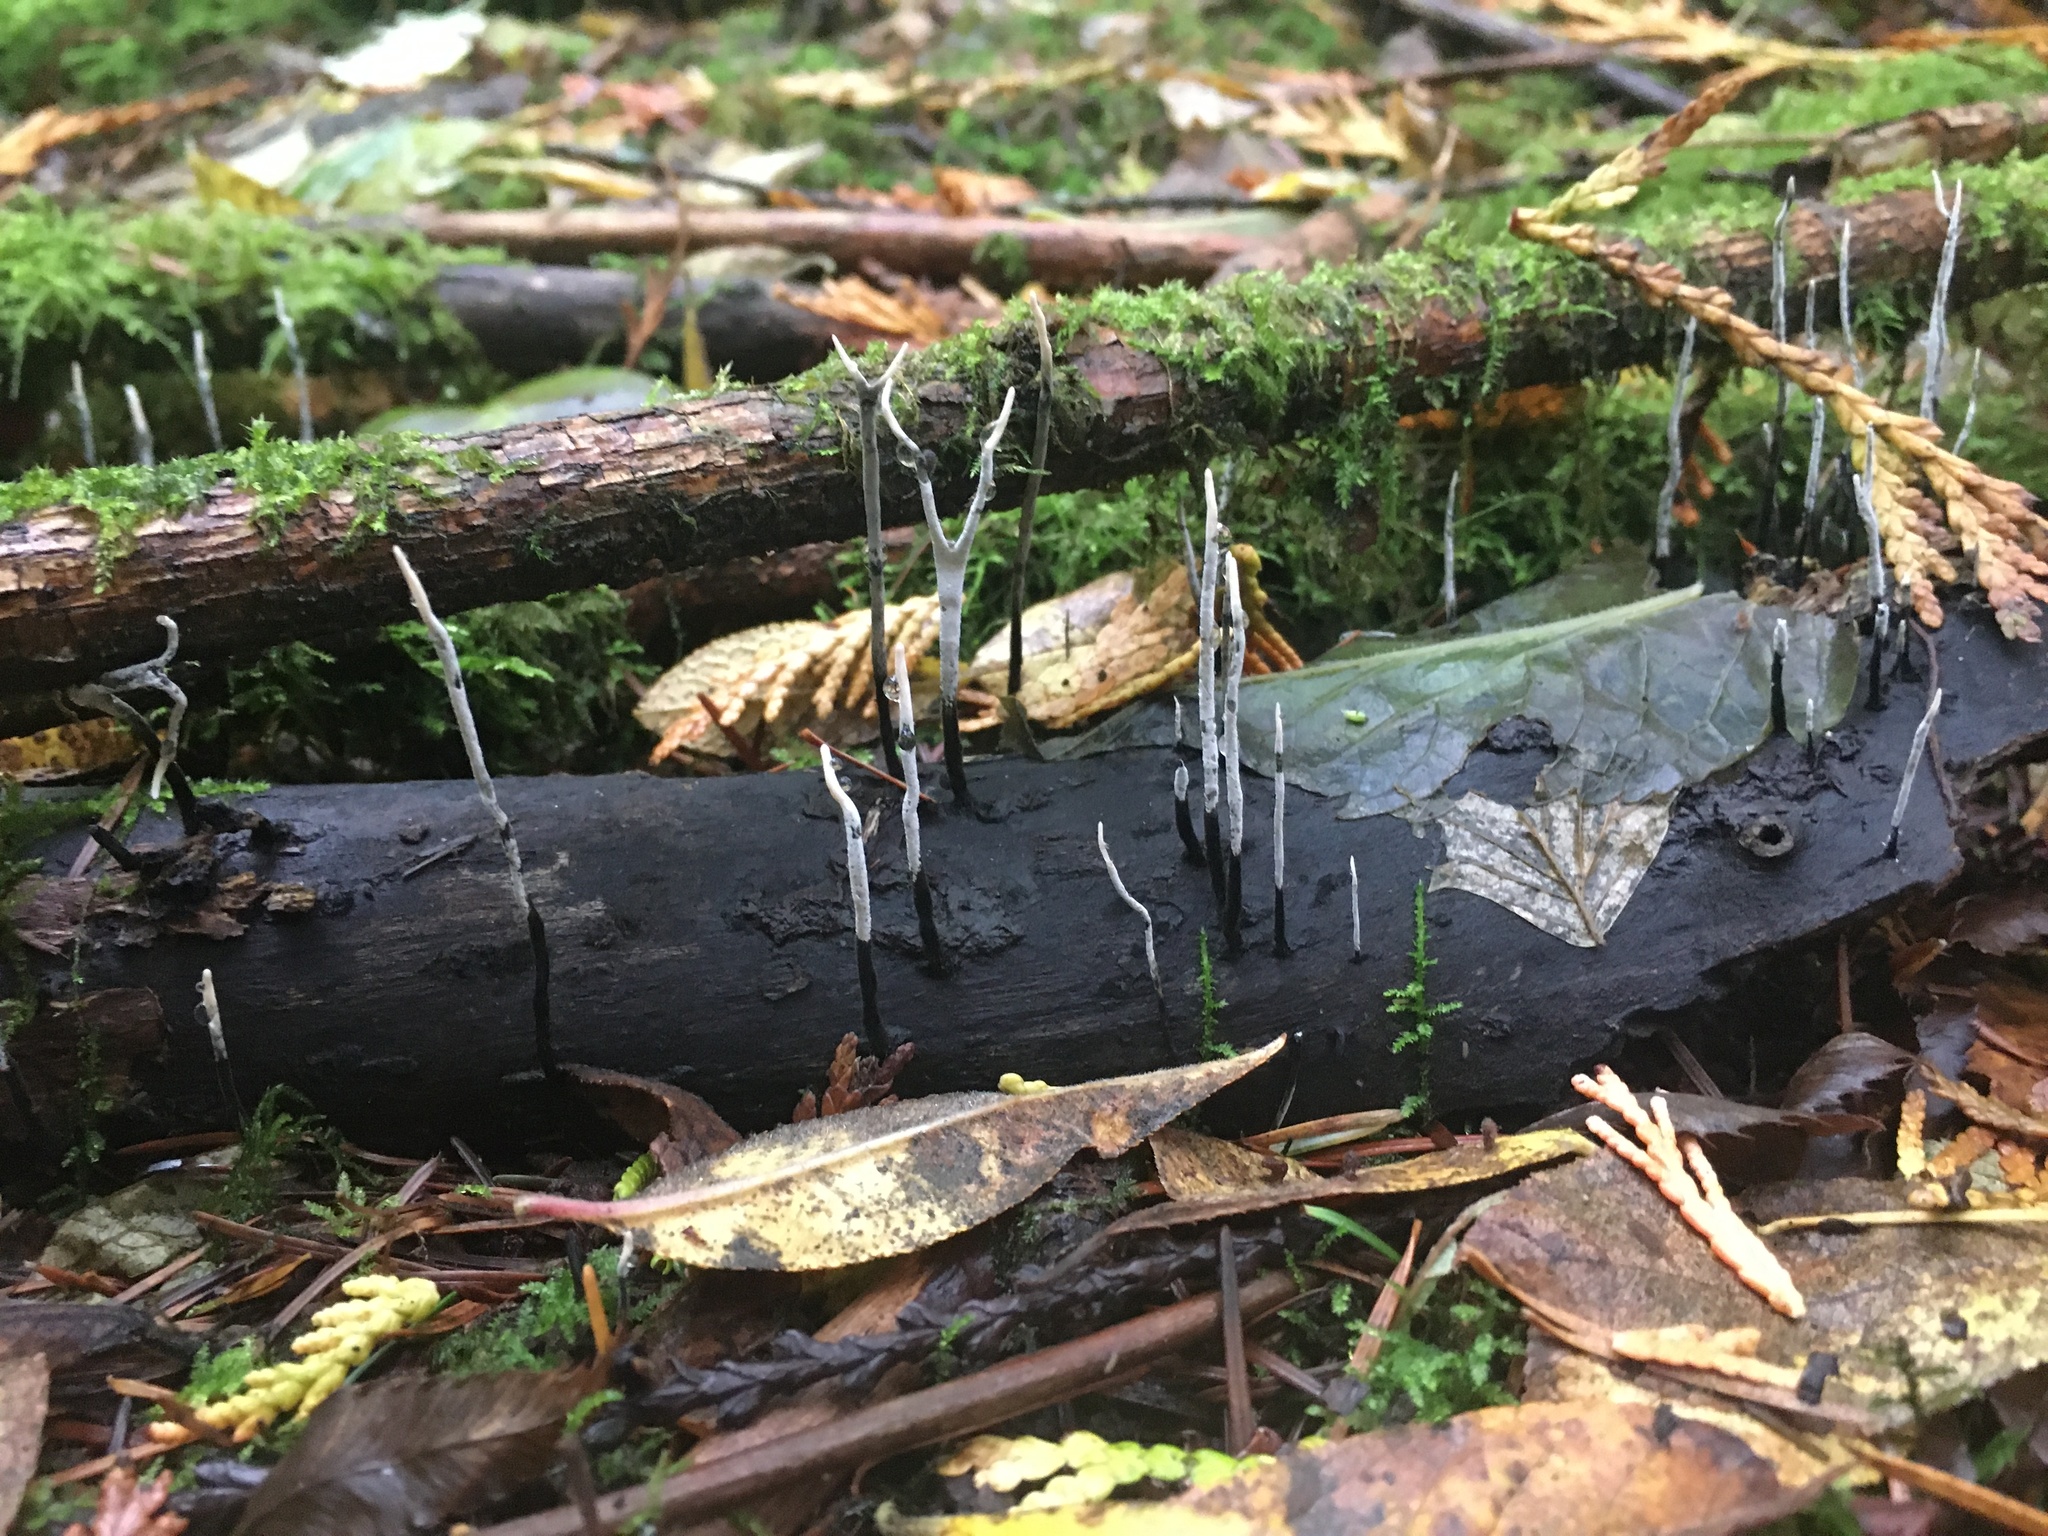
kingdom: Fungi
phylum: Ascomycota
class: Sordariomycetes
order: Xylariales
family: Xylariaceae
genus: Xylaria
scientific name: Xylaria hypoxylon
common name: Candle-snuff fungus
